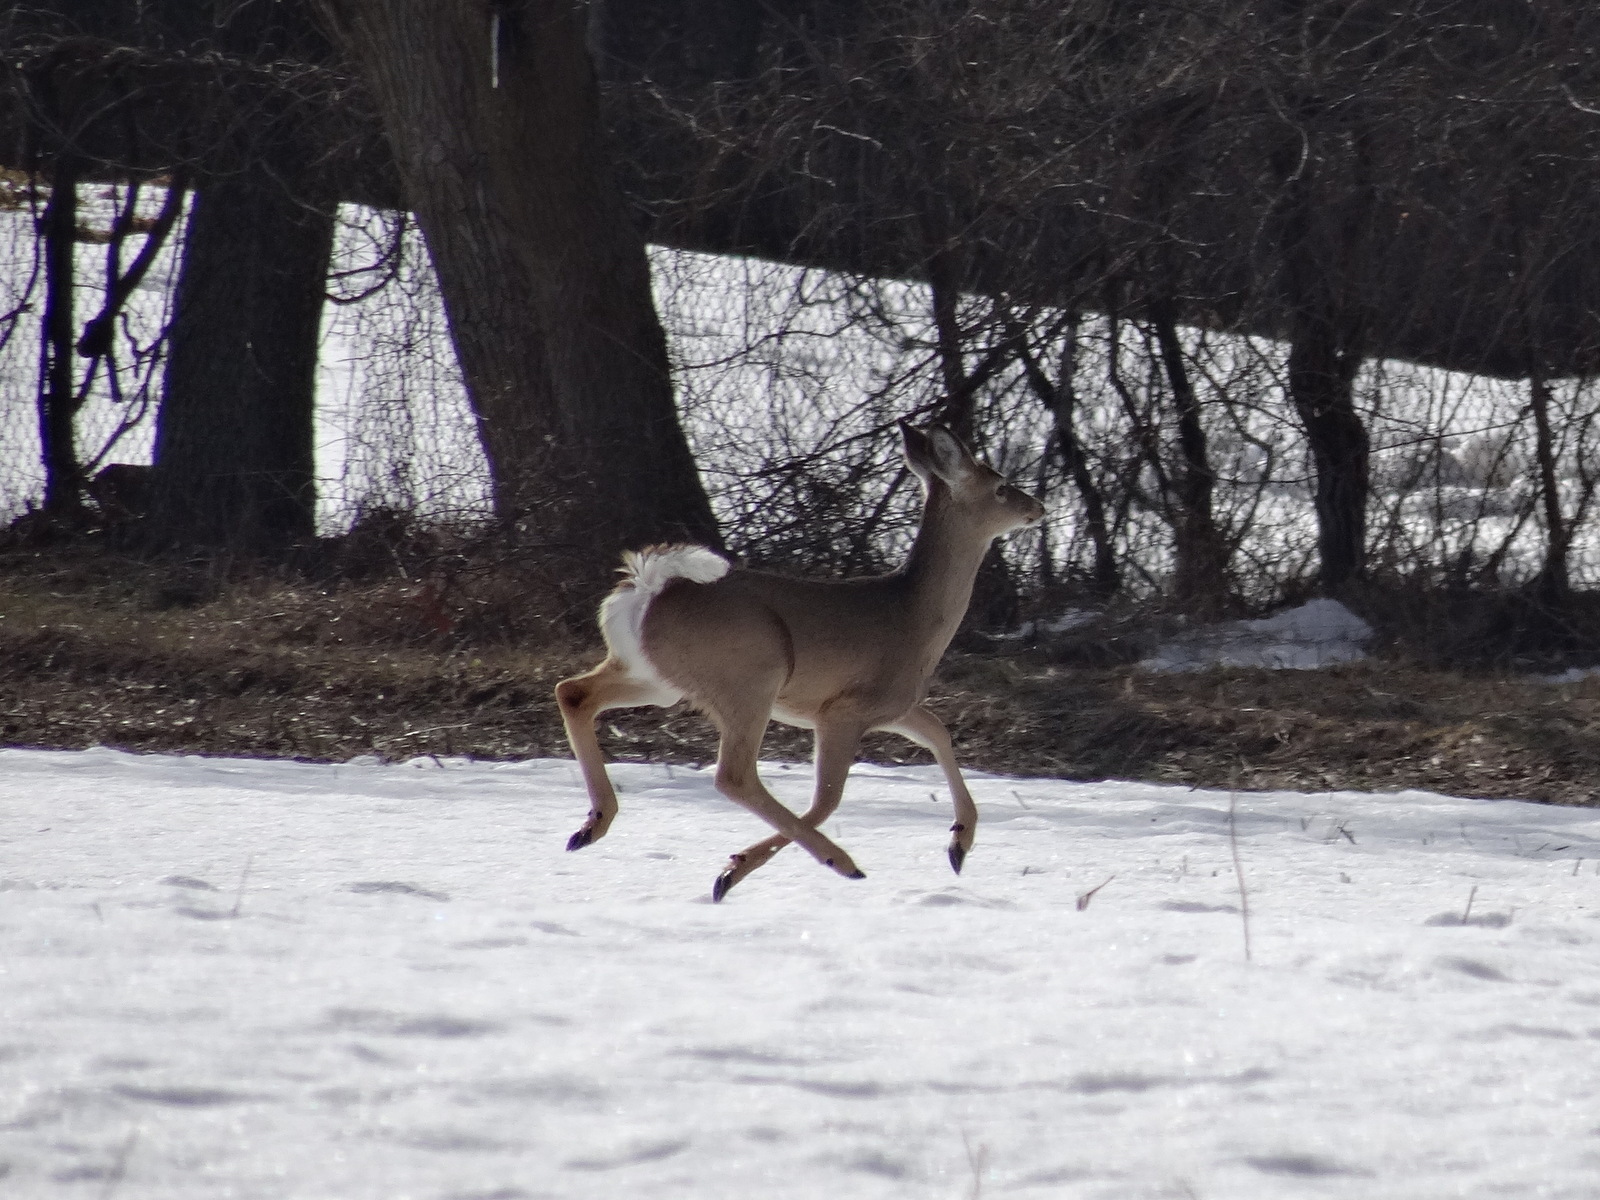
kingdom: Animalia
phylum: Chordata
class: Mammalia
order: Artiodactyla
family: Cervidae
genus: Odocoileus
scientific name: Odocoileus virginianus
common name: White-tailed deer
